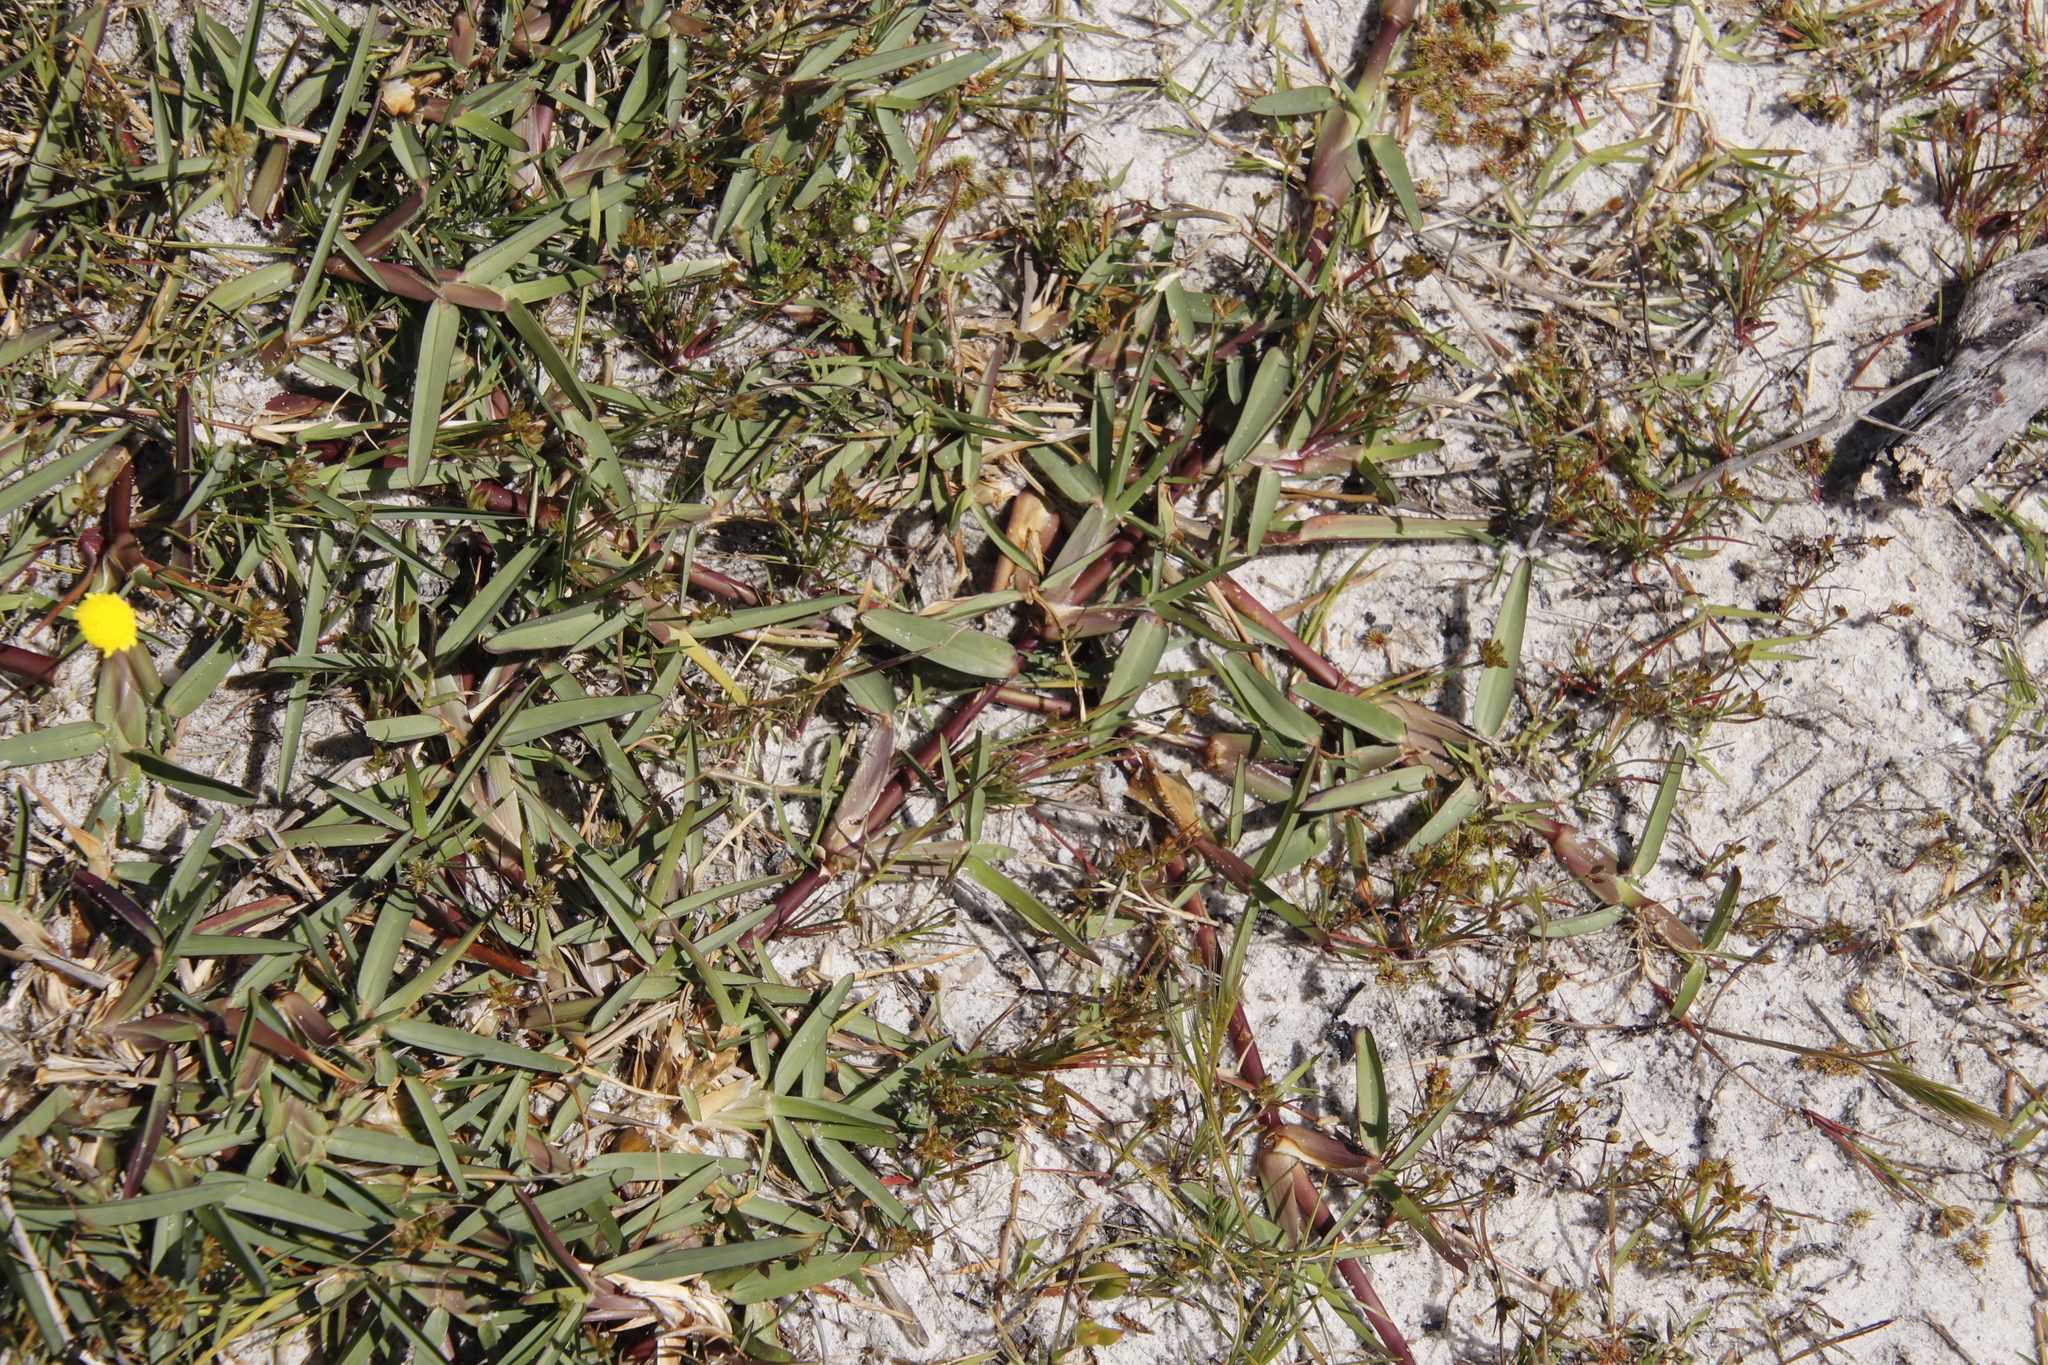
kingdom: Plantae
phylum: Tracheophyta
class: Liliopsida
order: Poales
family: Poaceae
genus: Stenotaphrum
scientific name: Stenotaphrum secundatum
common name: St. augustine grass
